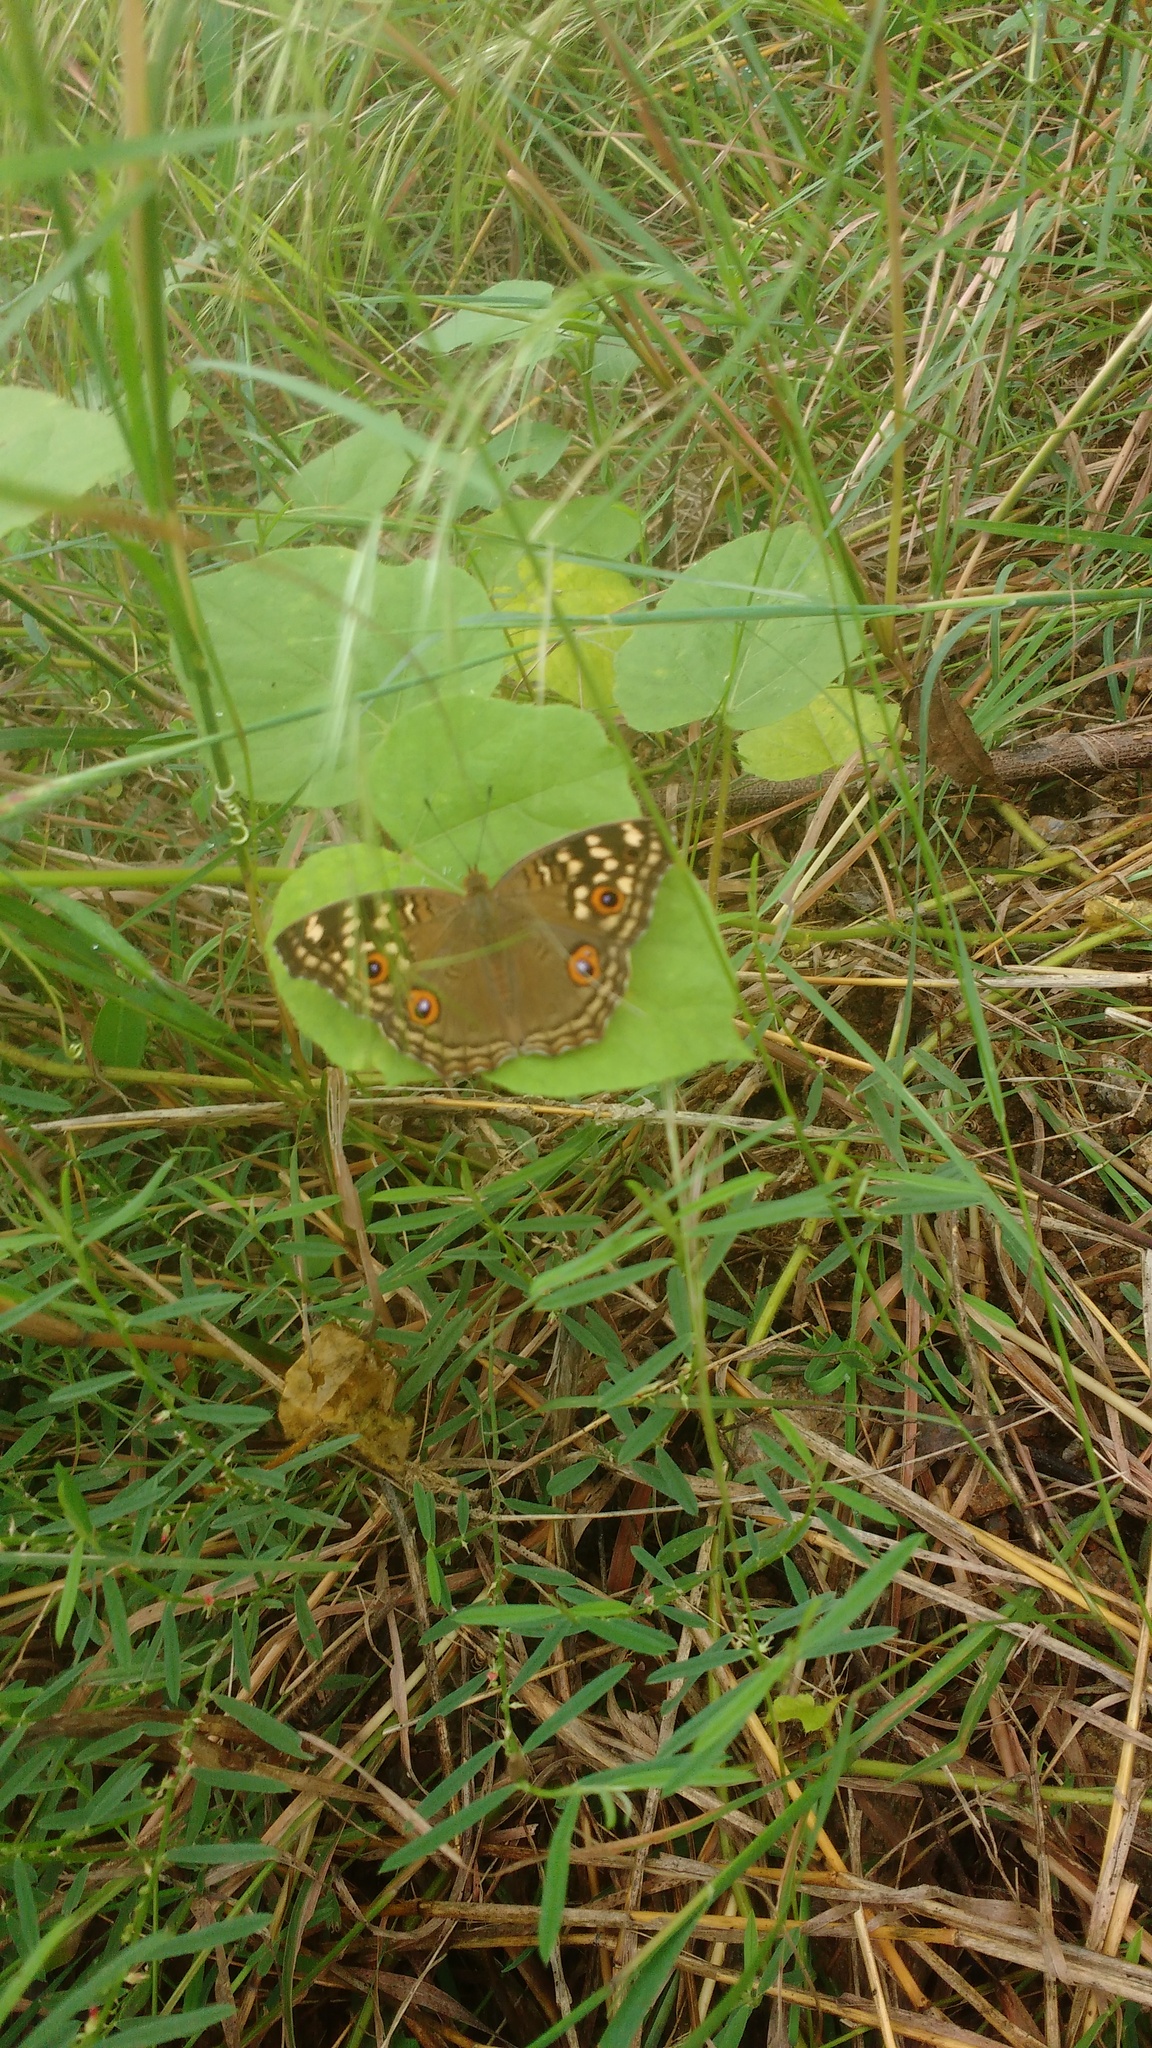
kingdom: Animalia
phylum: Arthropoda
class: Insecta
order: Lepidoptera
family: Nymphalidae
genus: Junonia
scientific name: Junonia lemonias
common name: Lemon pansy
